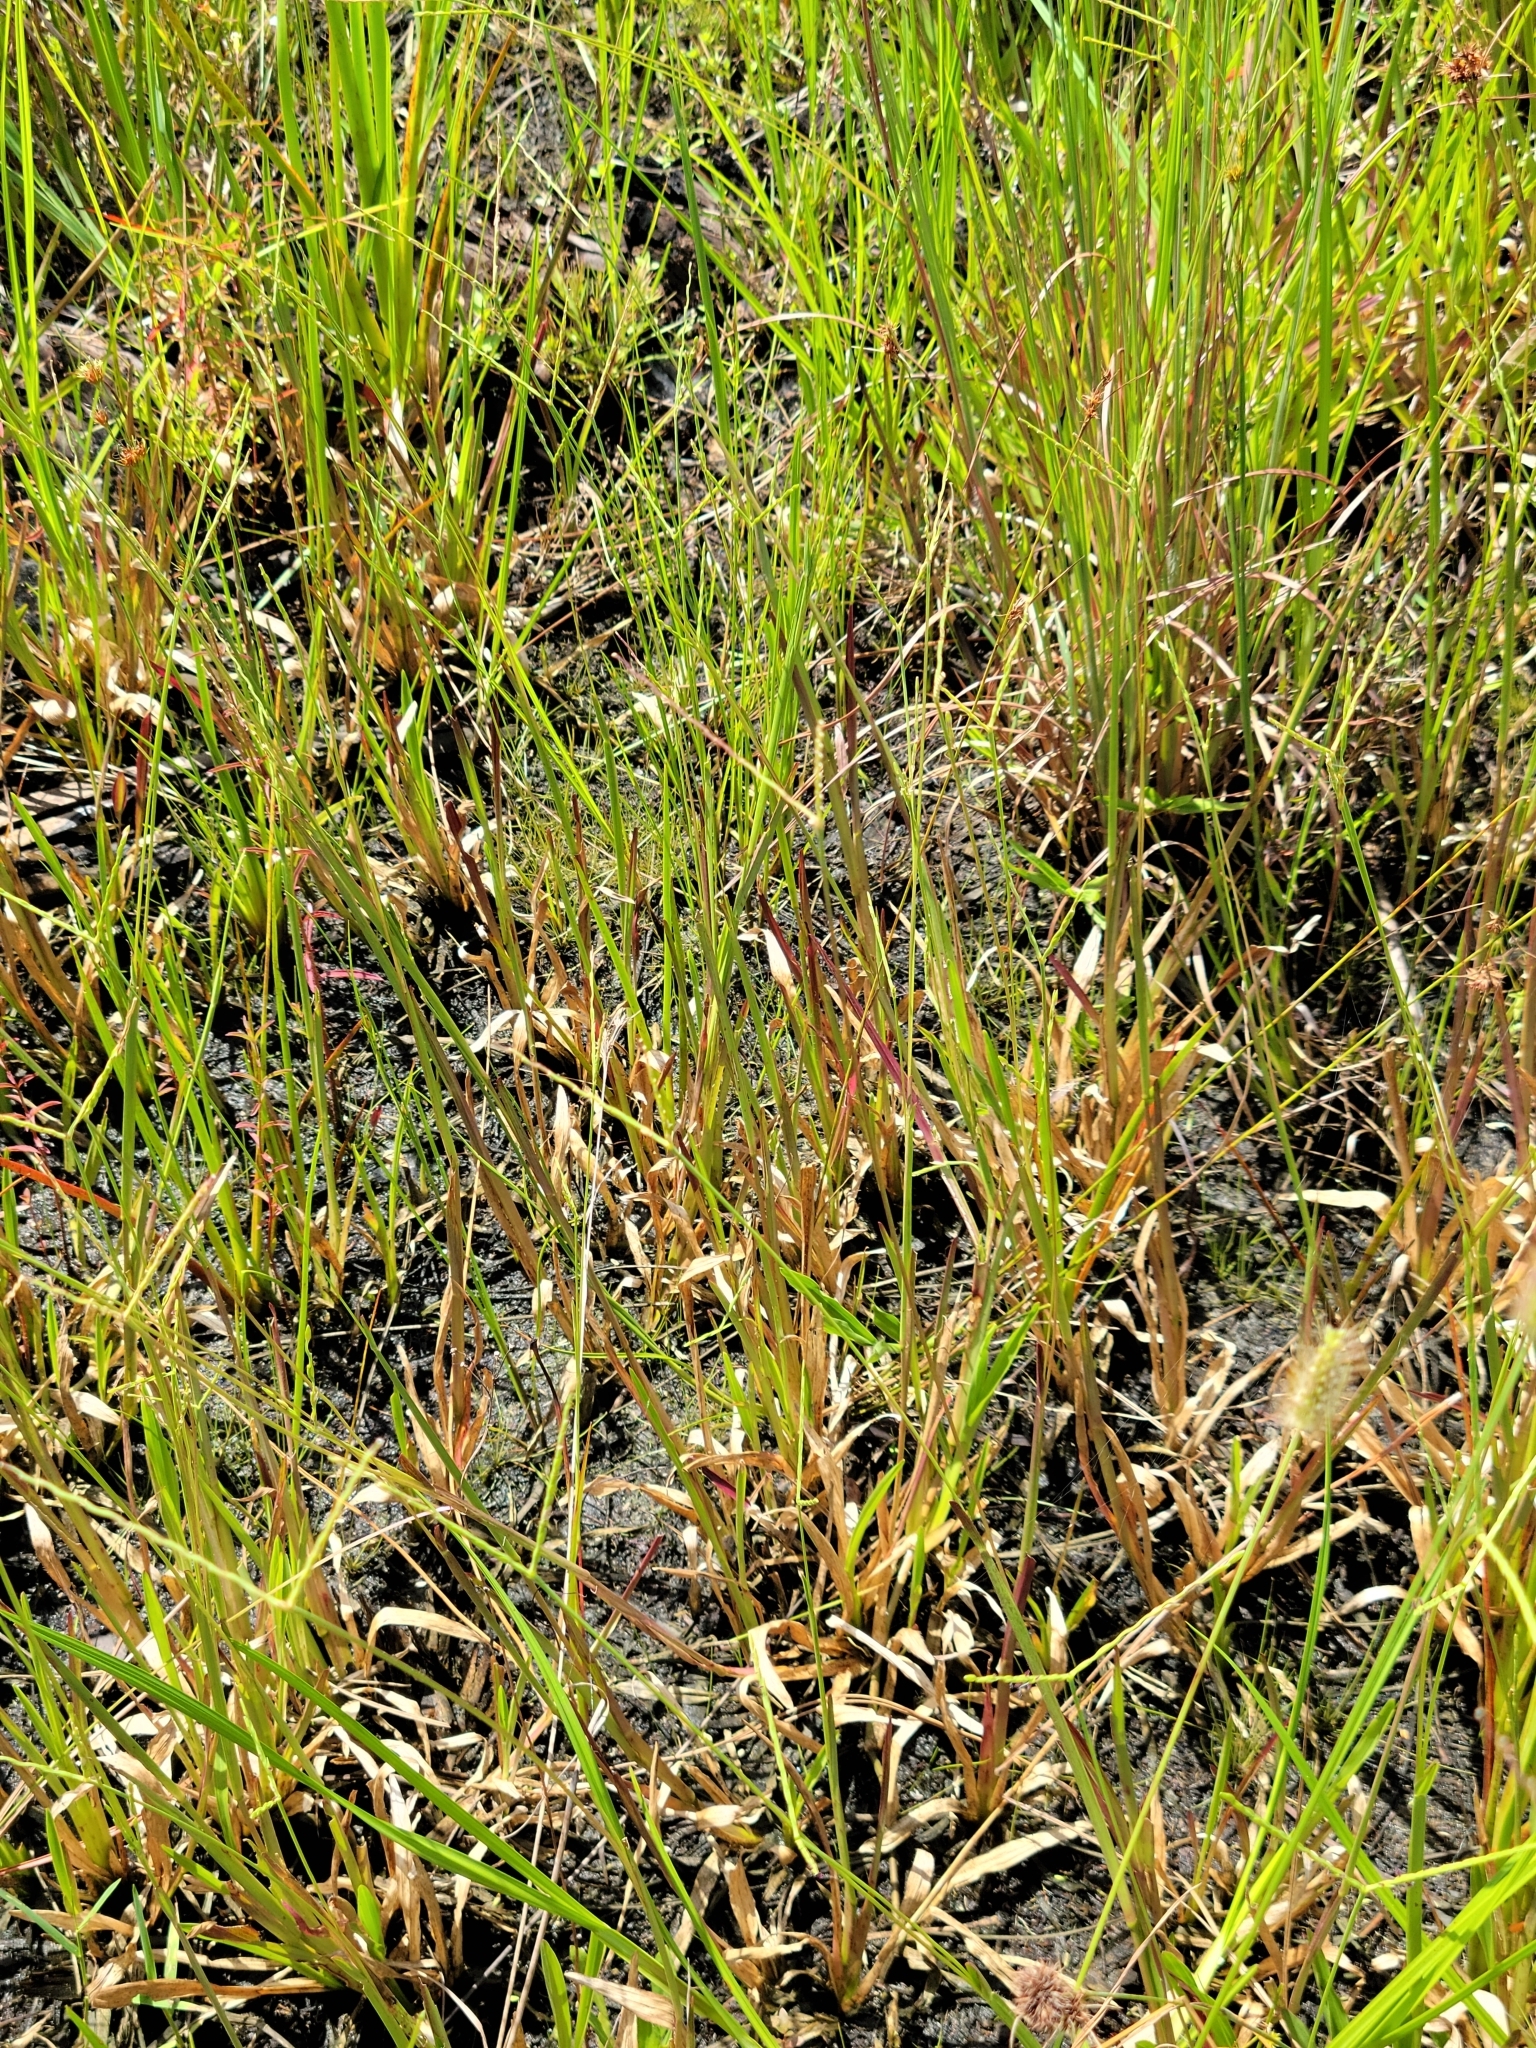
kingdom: Plantae
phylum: Tracheophyta
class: Liliopsida
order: Poales
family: Poaceae
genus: Axonopus
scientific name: Axonopus furcatus
